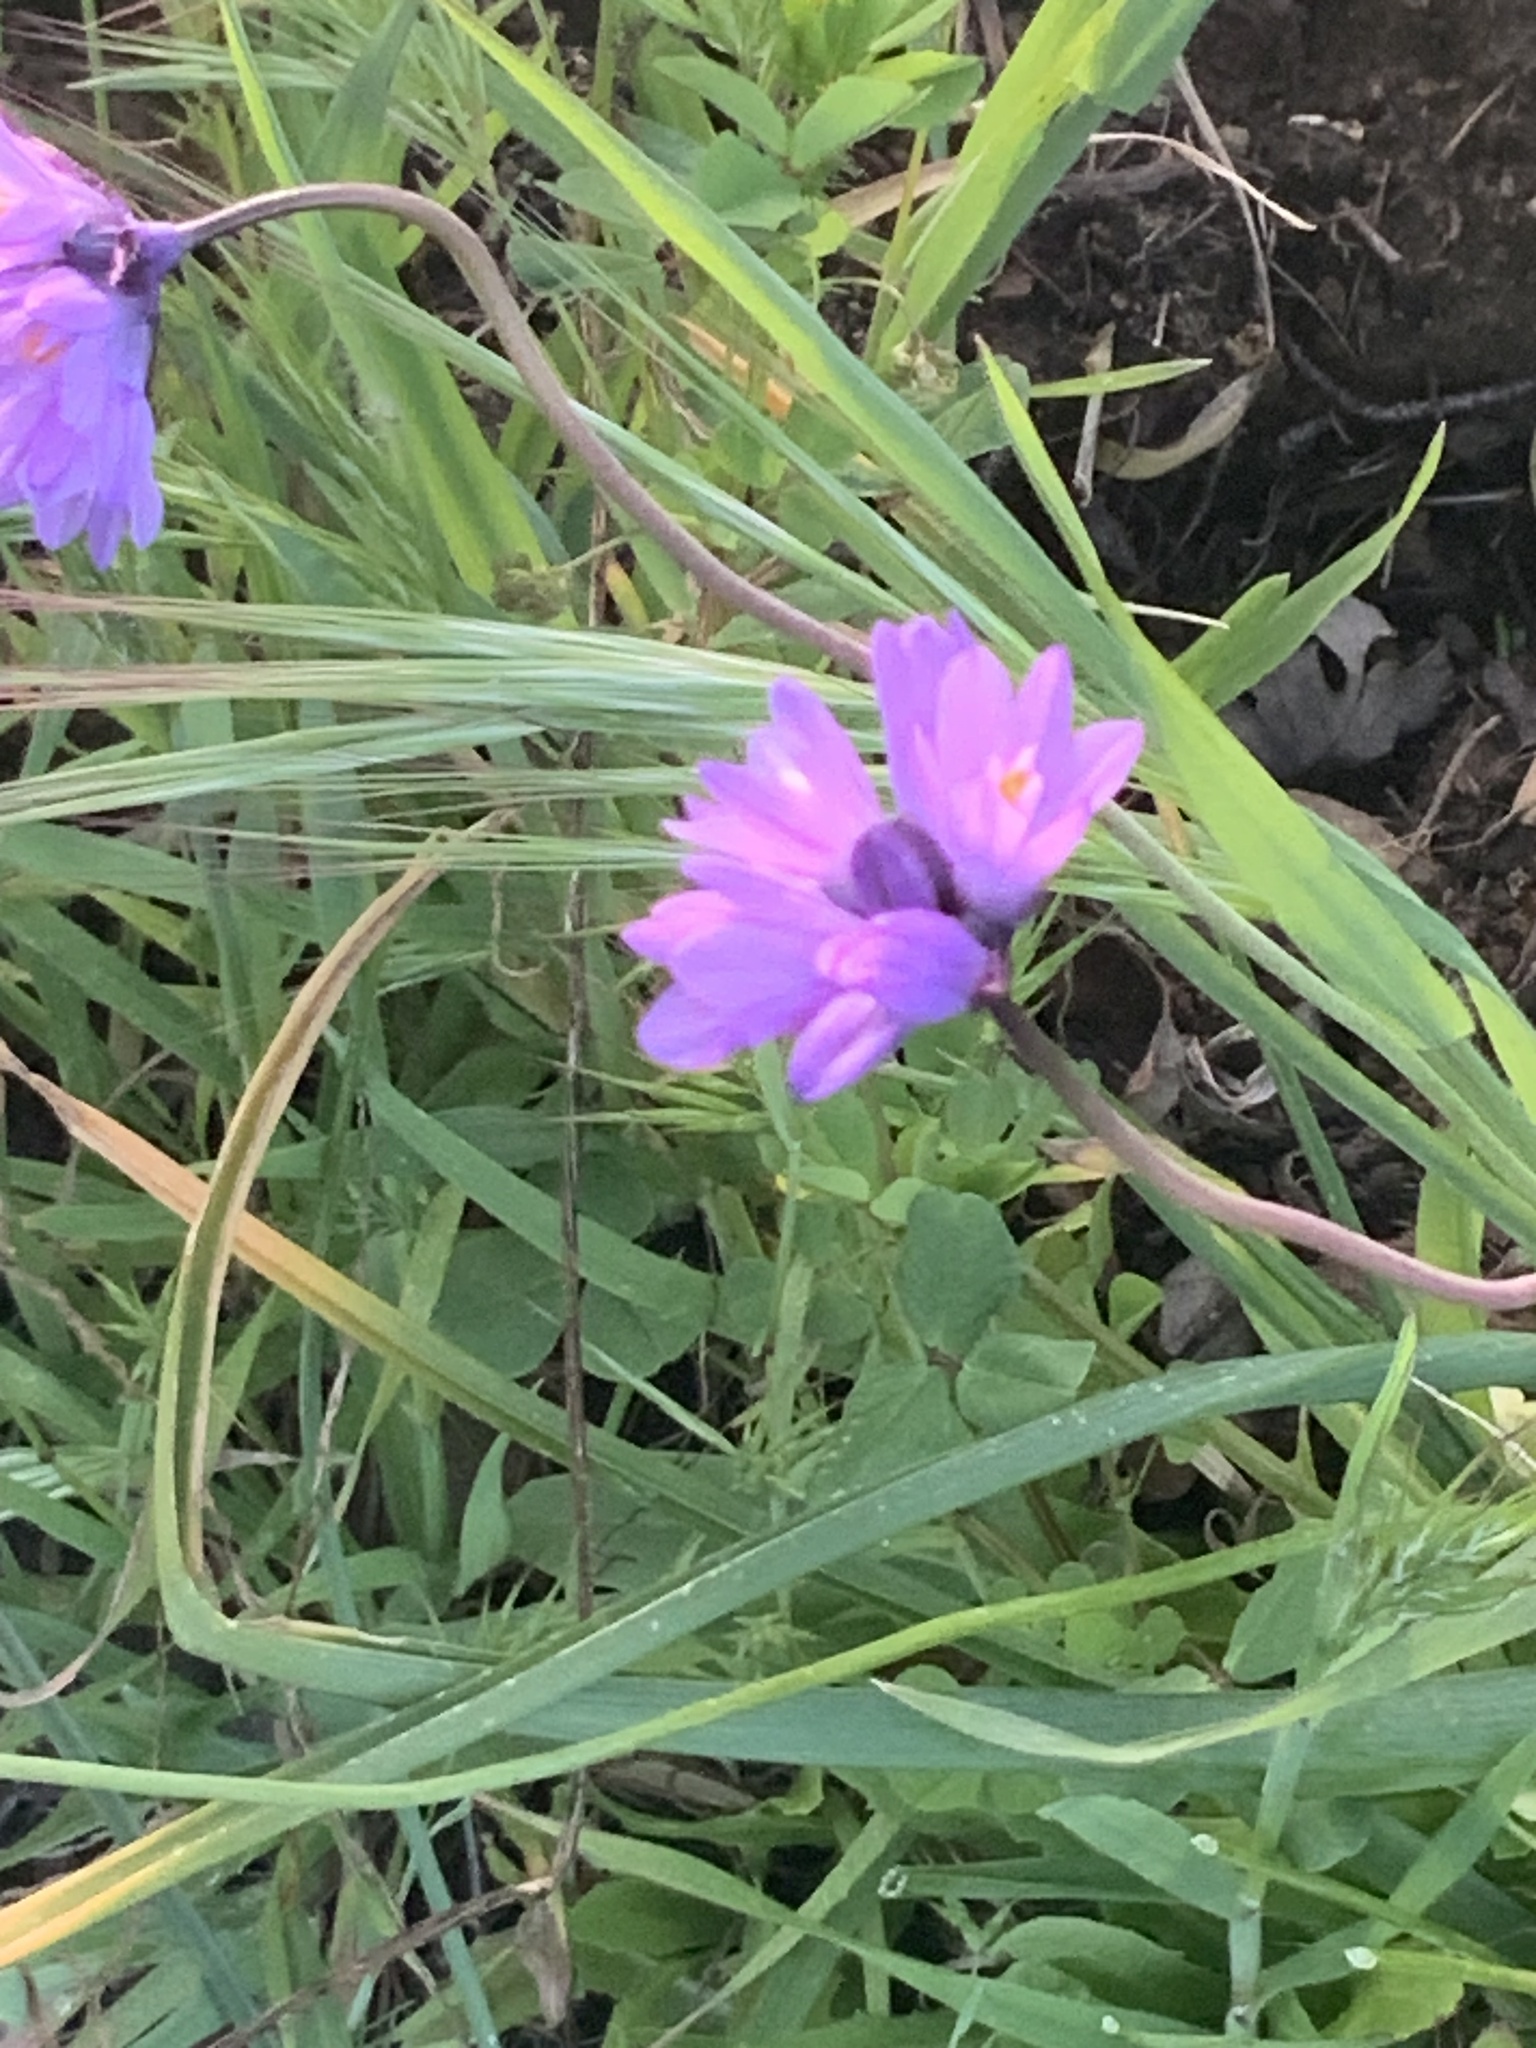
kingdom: Plantae
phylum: Tracheophyta
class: Liliopsida
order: Asparagales
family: Asparagaceae
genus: Dipterostemon
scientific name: Dipterostemon capitatus
